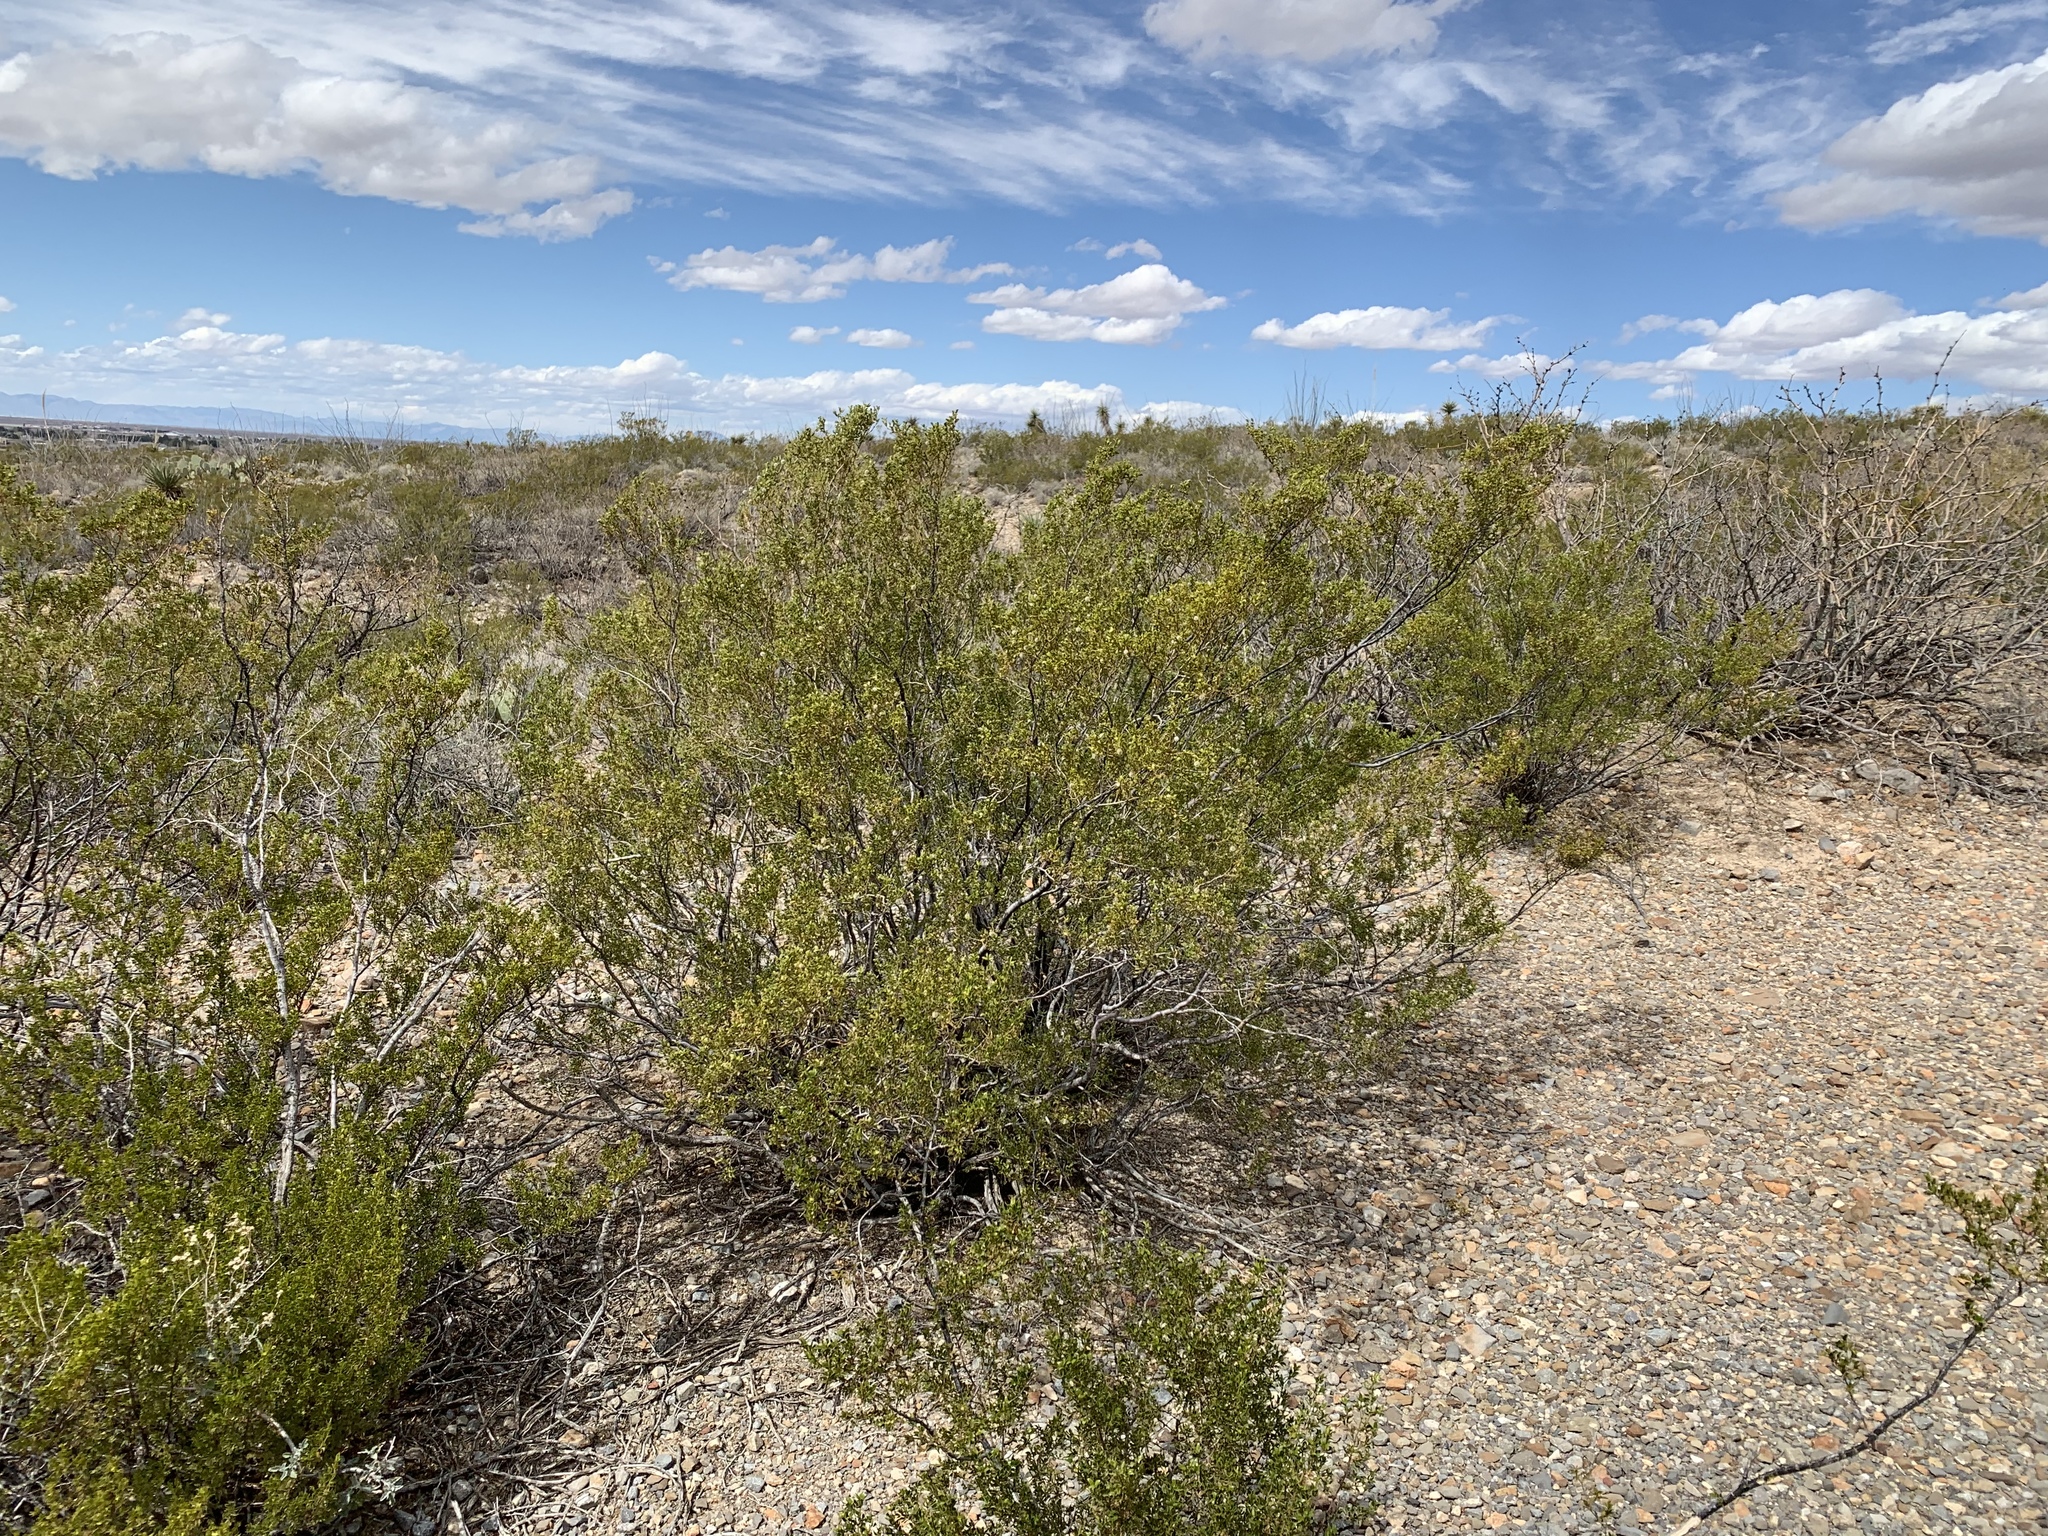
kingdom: Plantae
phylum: Tracheophyta
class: Magnoliopsida
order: Zygophyllales
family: Zygophyllaceae
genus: Larrea
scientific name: Larrea tridentata
